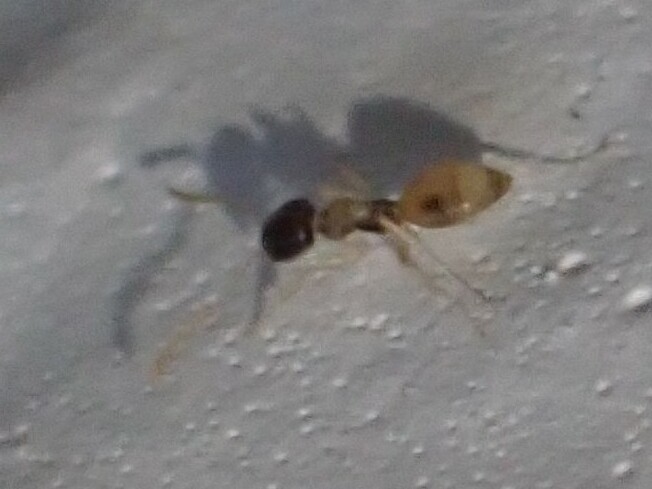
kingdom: Animalia
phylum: Arthropoda
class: Insecta
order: Hymenoptera
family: Formicidae
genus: Tapinoma
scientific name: Tapinoma melanocephalum
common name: Ghost ant
